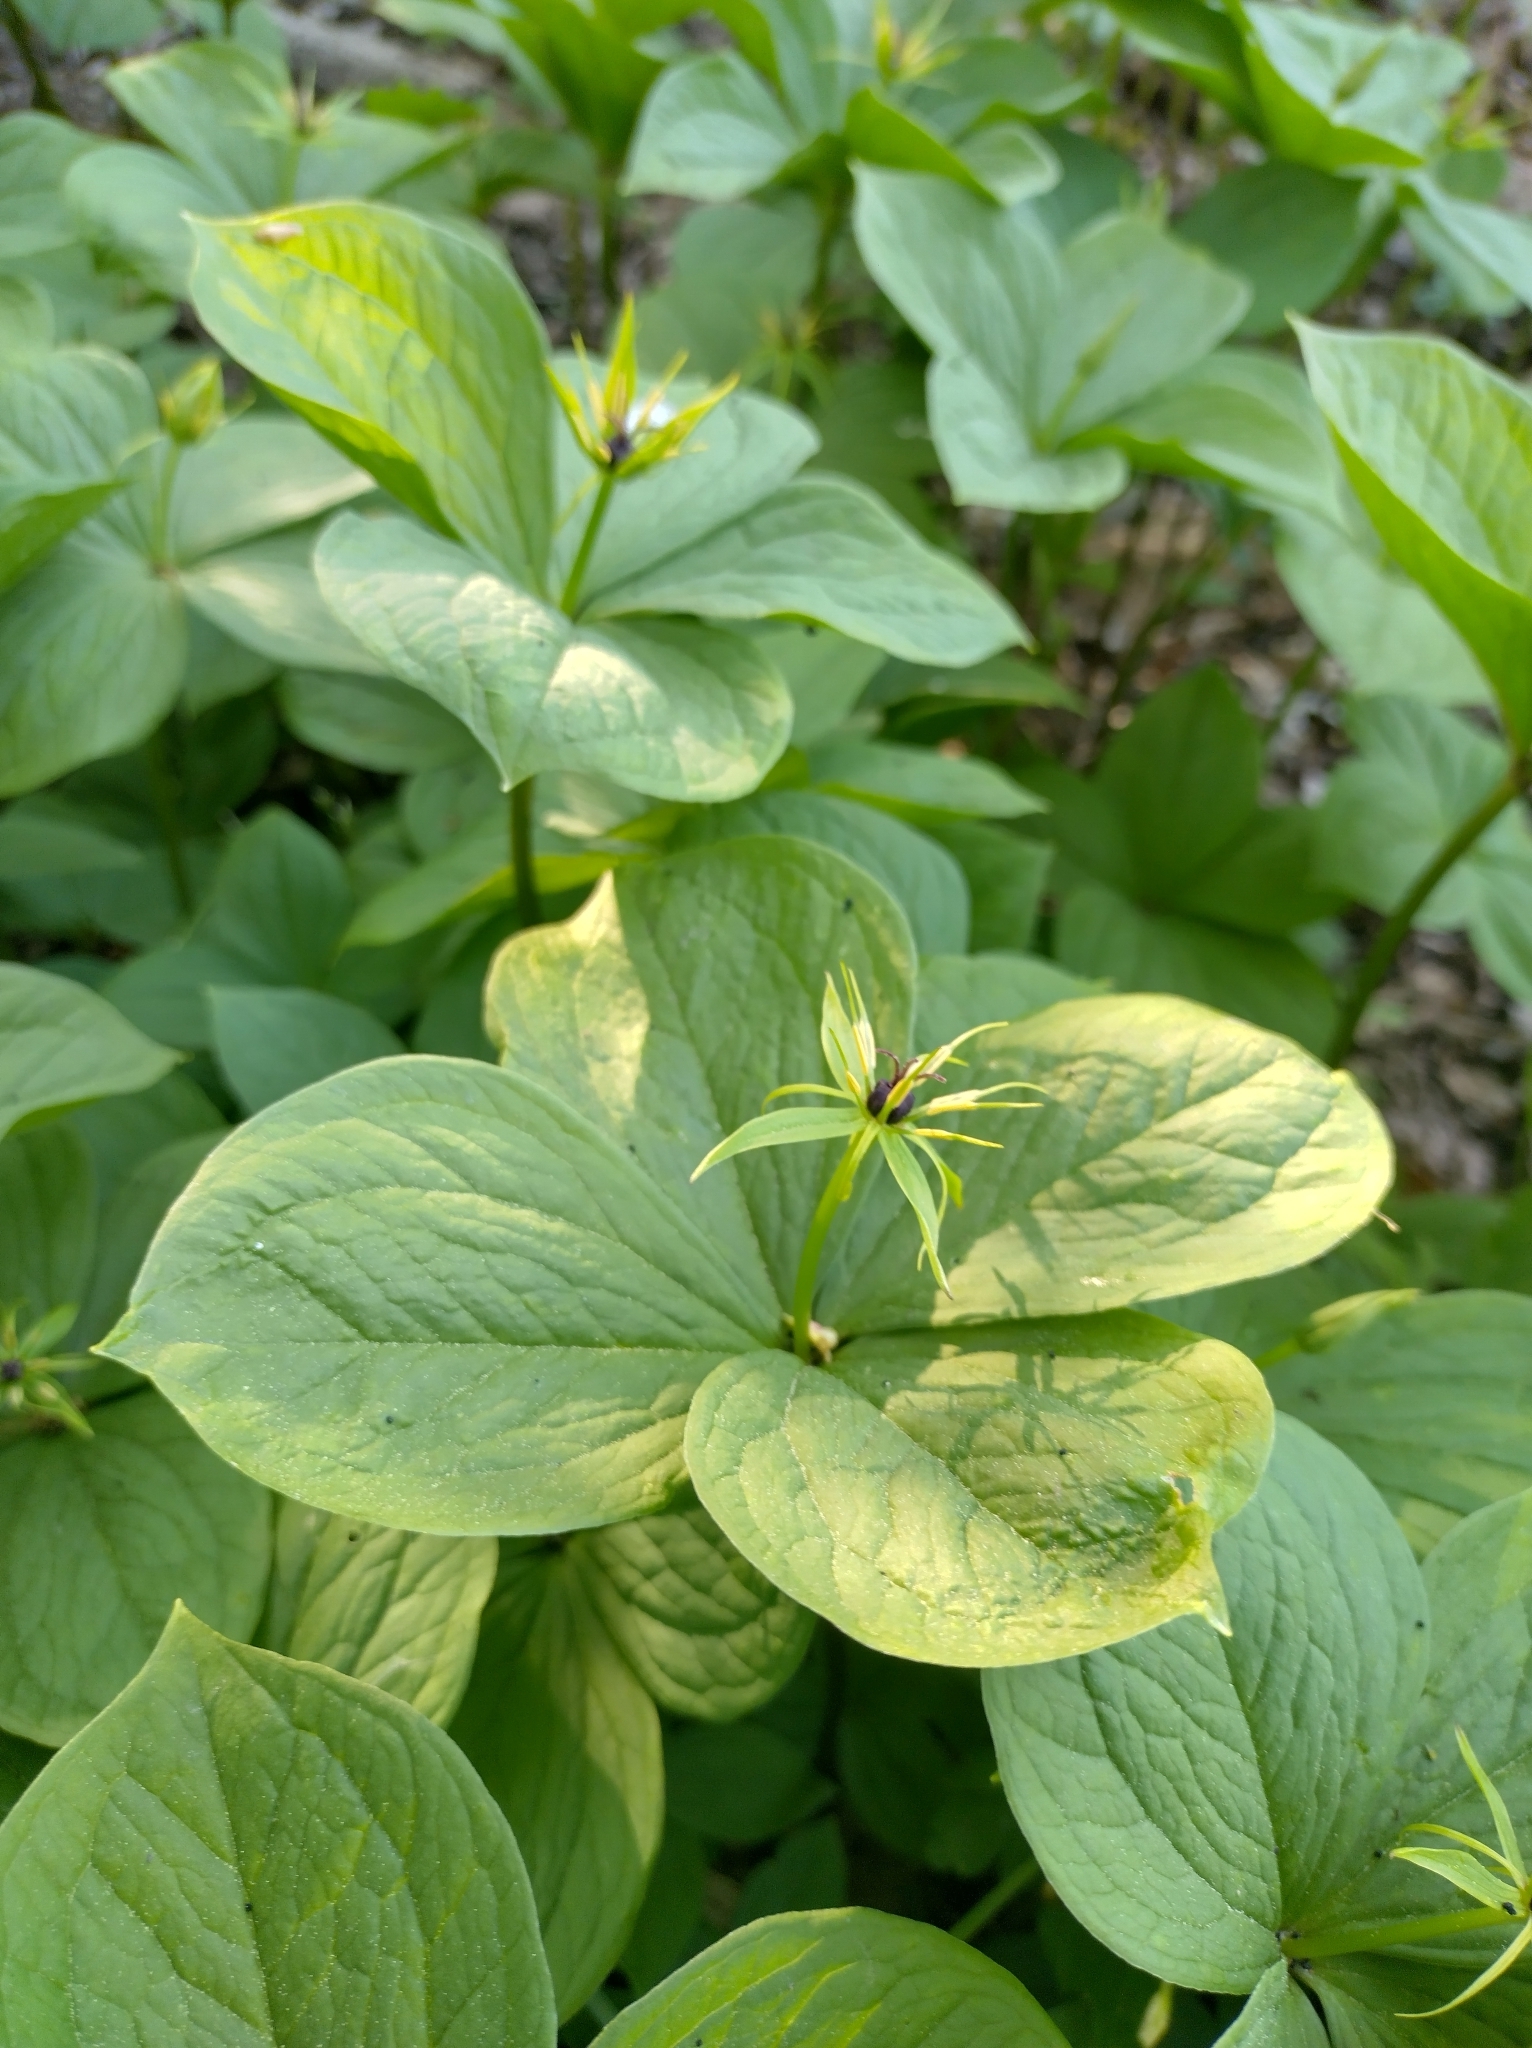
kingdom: Plantae
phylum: Tracheophyta
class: Liliopsida
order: Liliales
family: Melanthiaceae
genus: Paris
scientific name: Paris quadrifolia
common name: Herb-paris
